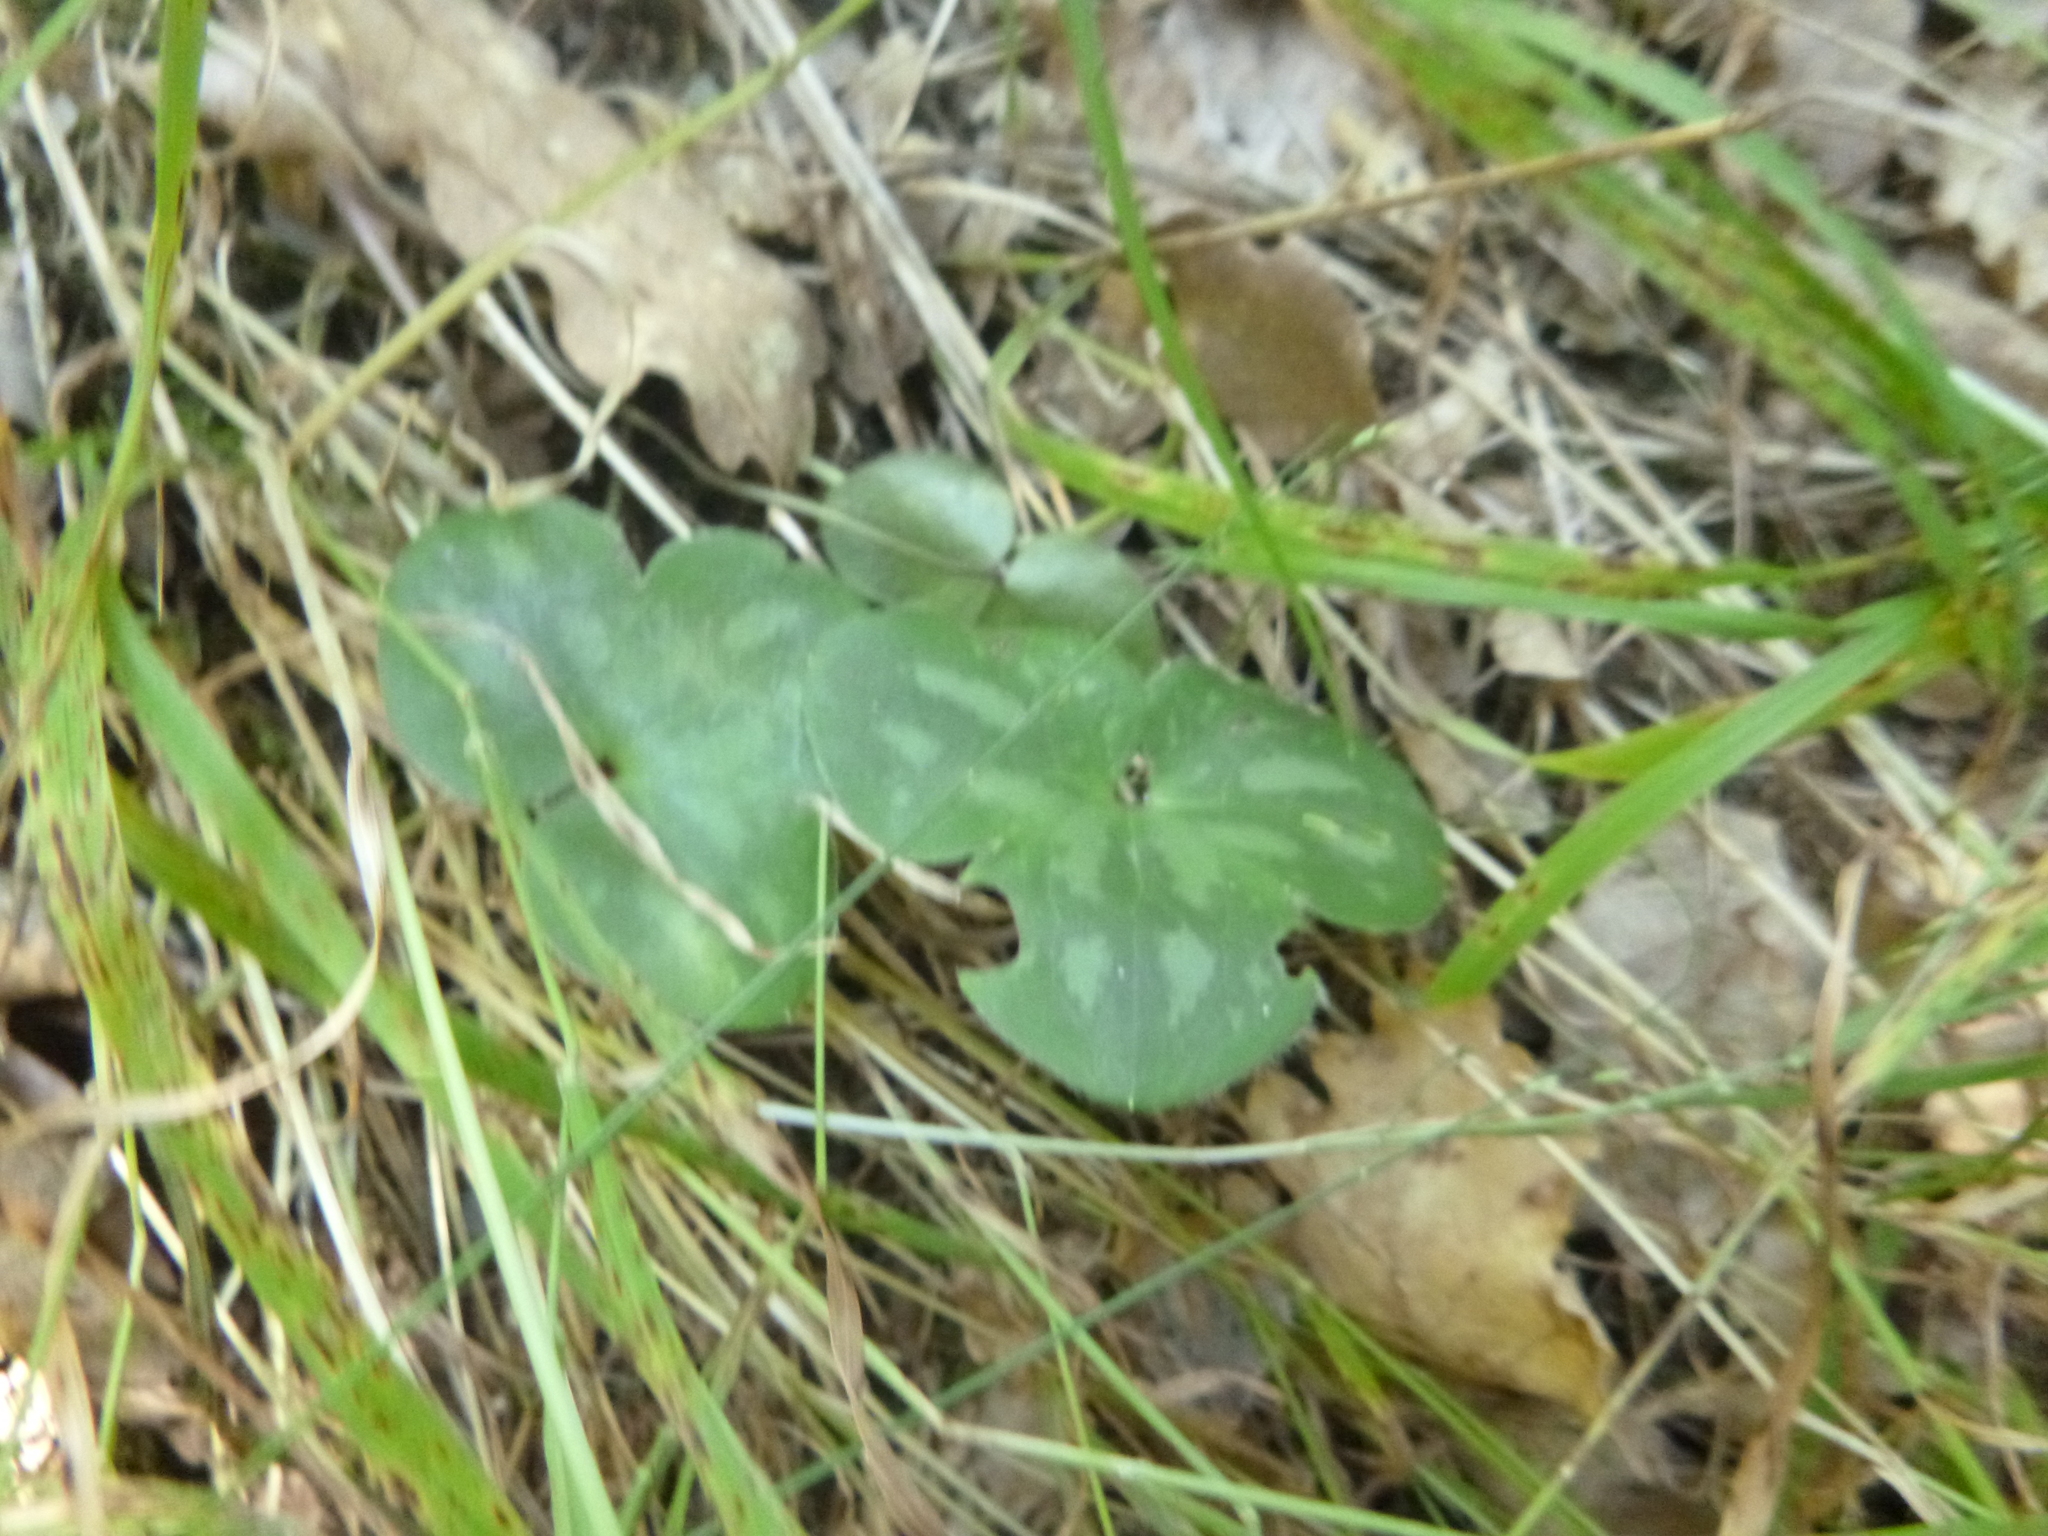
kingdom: Plantae
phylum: Tracheophyta
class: Magnoliopsida
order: Ranunculales
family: Ranunculaceae
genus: Hepatica
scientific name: Hepatica nobilis
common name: Liverleaf
